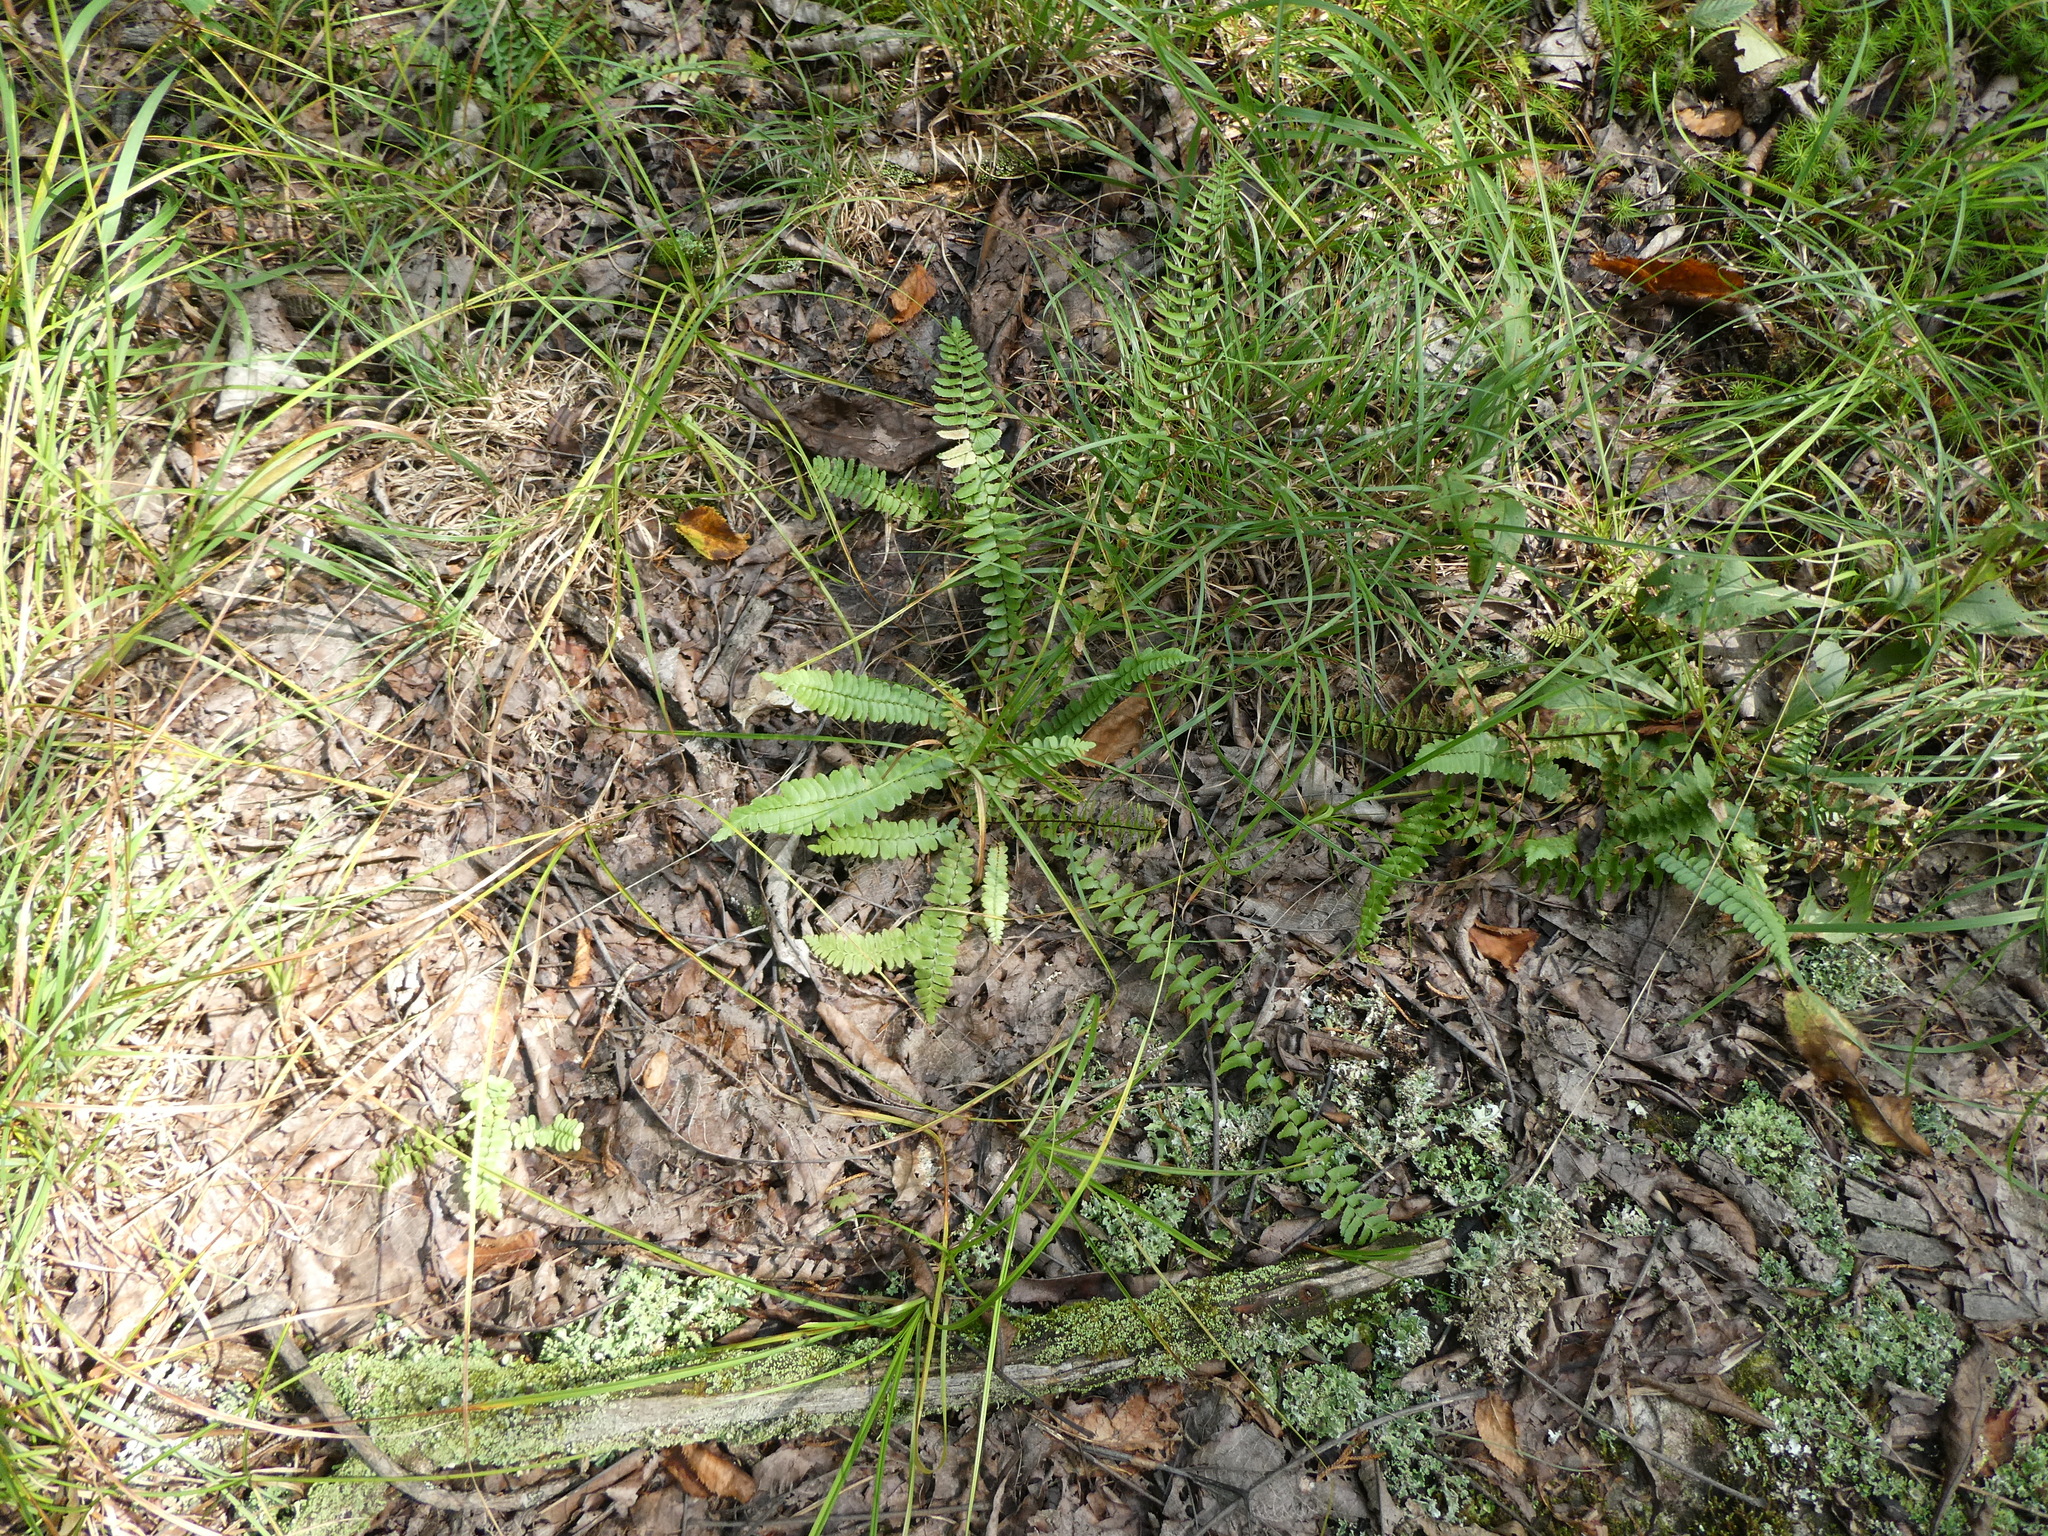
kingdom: Plantae
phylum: Tracheophyta
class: Polypodiopsida
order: Polypodiales
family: Aspleniaceae
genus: Asplenium
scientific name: Asplenium platyneuron
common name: Ebony spleenwort
